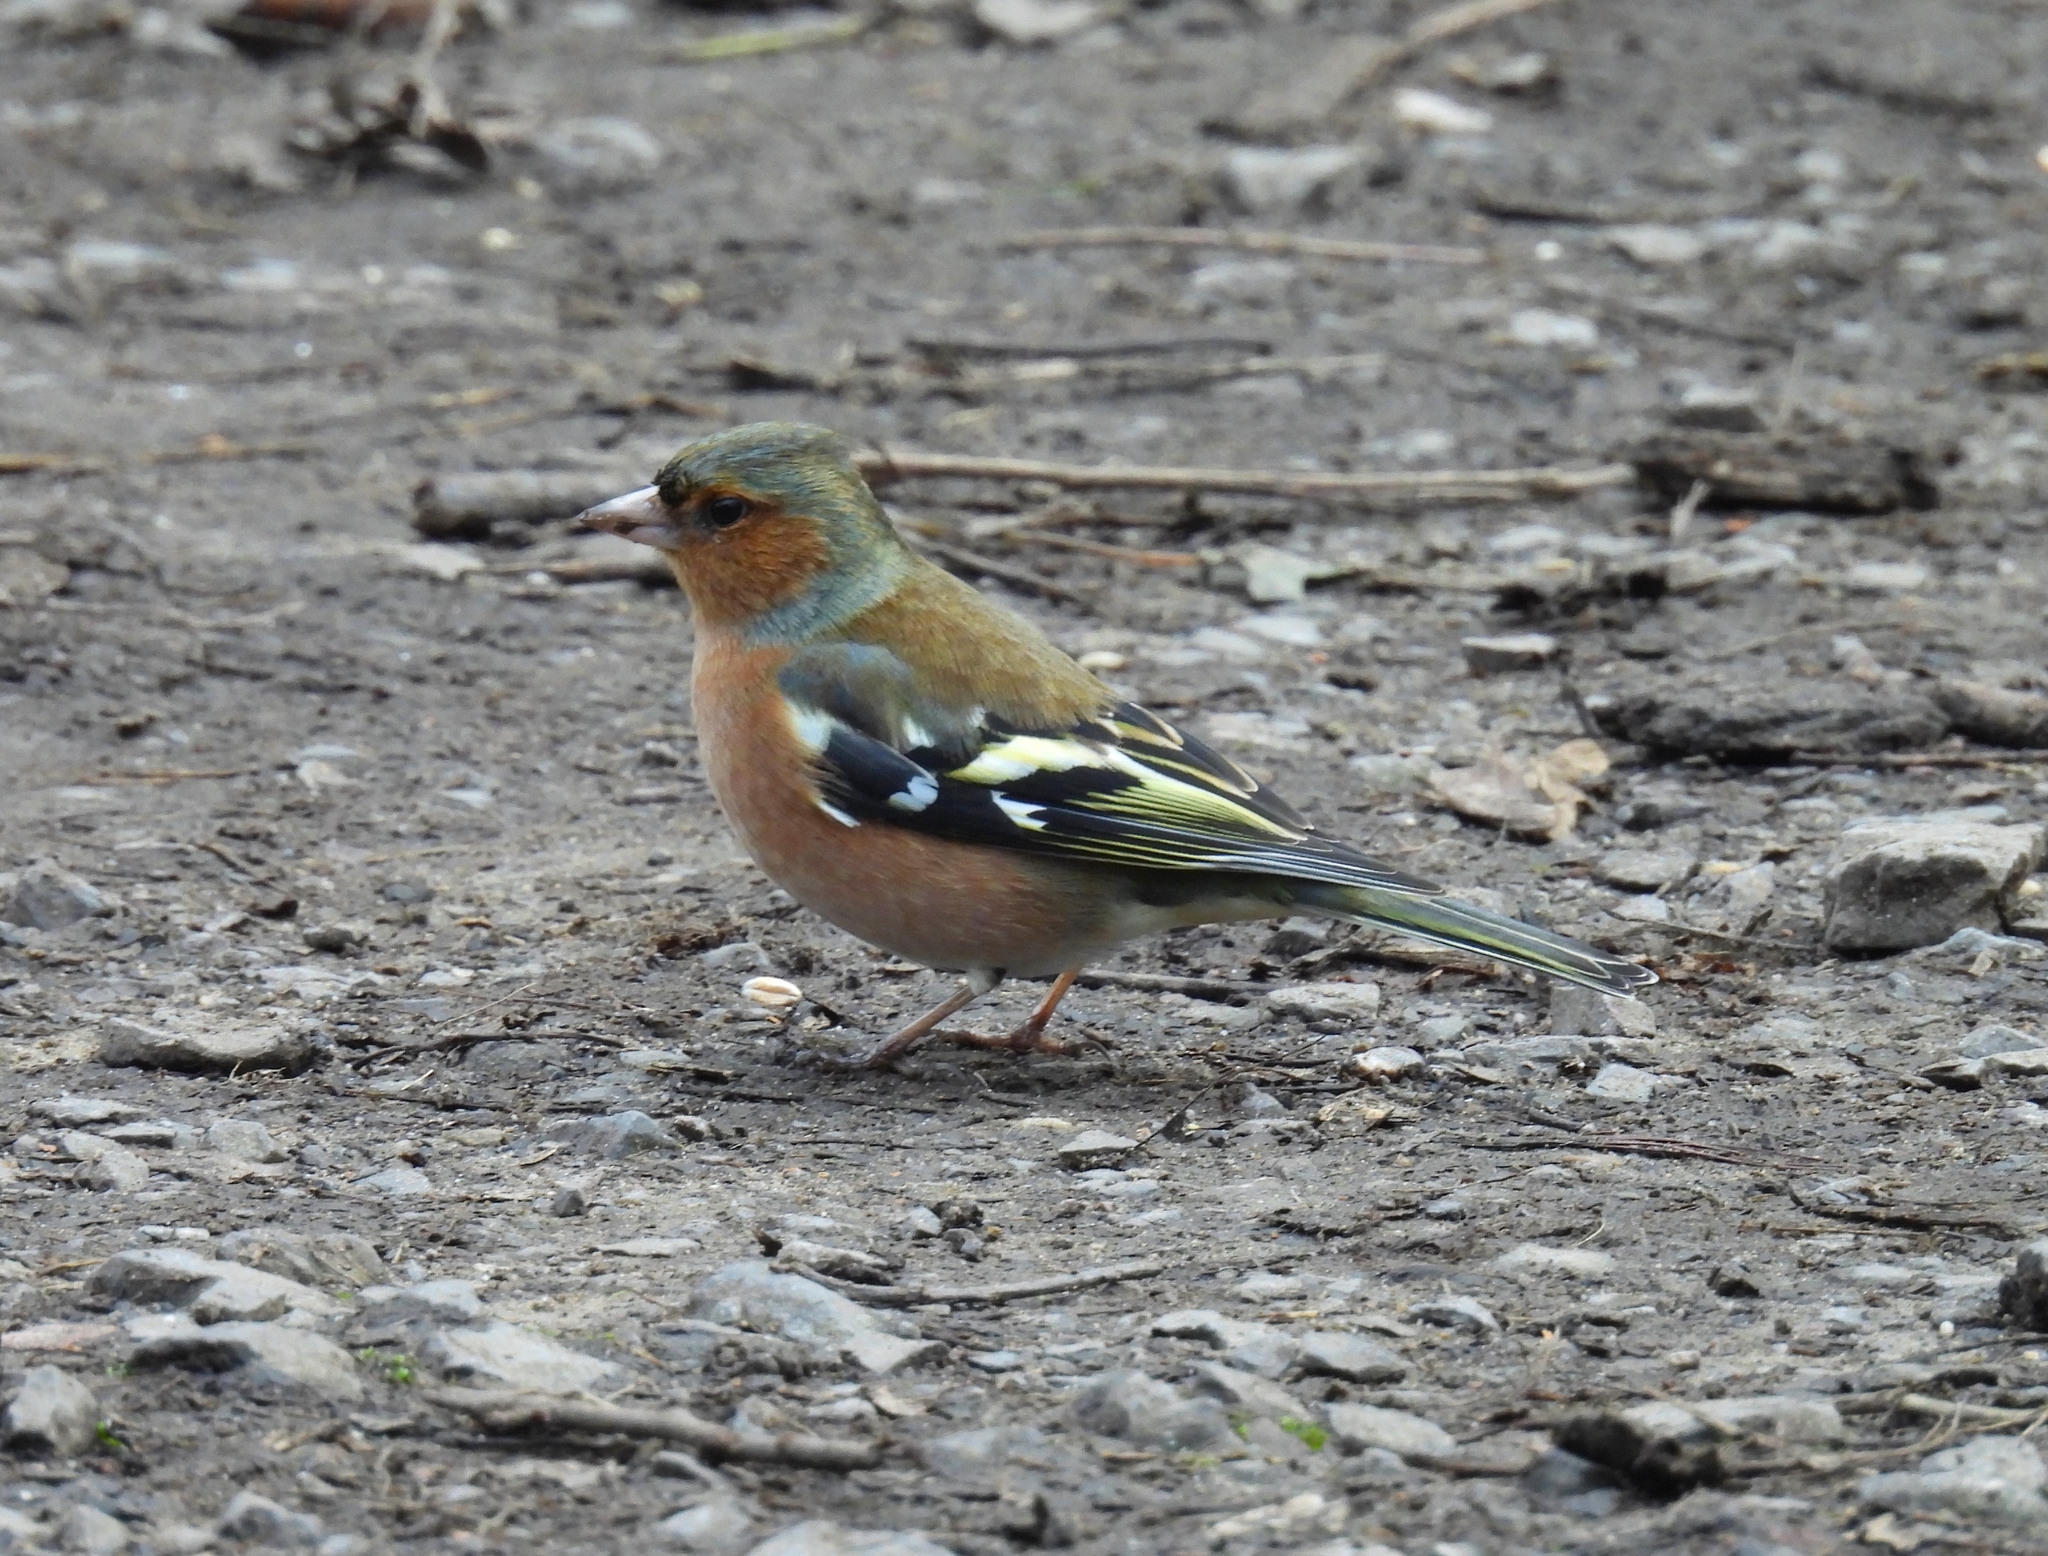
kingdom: Animalia
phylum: Chordata
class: Aves
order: Passeriformes
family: Fringillidae
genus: Fringilla
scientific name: Fringilla coelebs
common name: Common chaffinch
